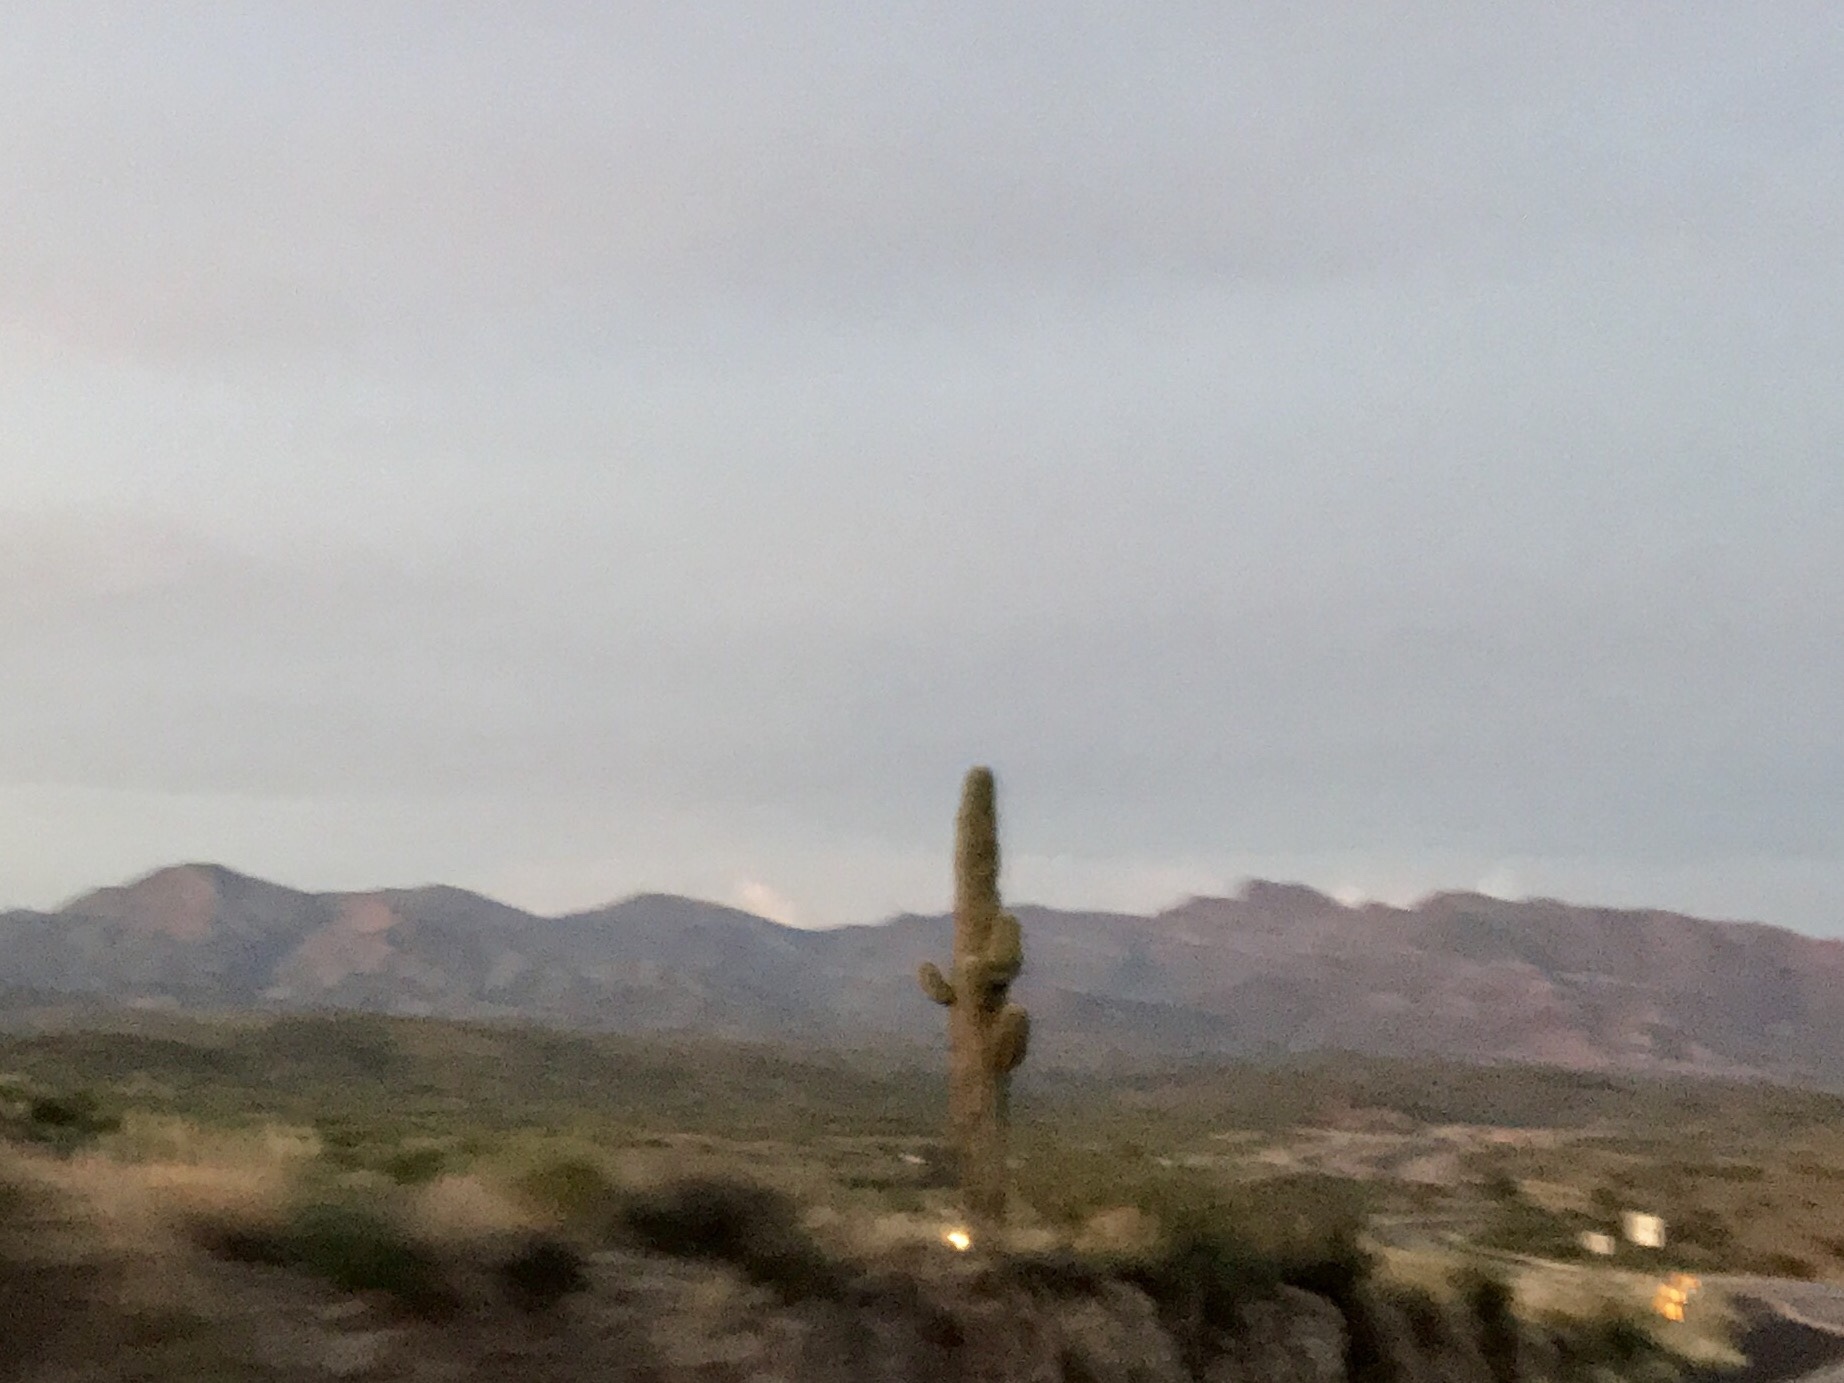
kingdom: Plantae
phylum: Tracheophyta
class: Magnoliopsida
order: Caryophyllales
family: Cactaceae
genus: Carnegiea
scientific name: Carnegiea gigantea
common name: Saguaro
